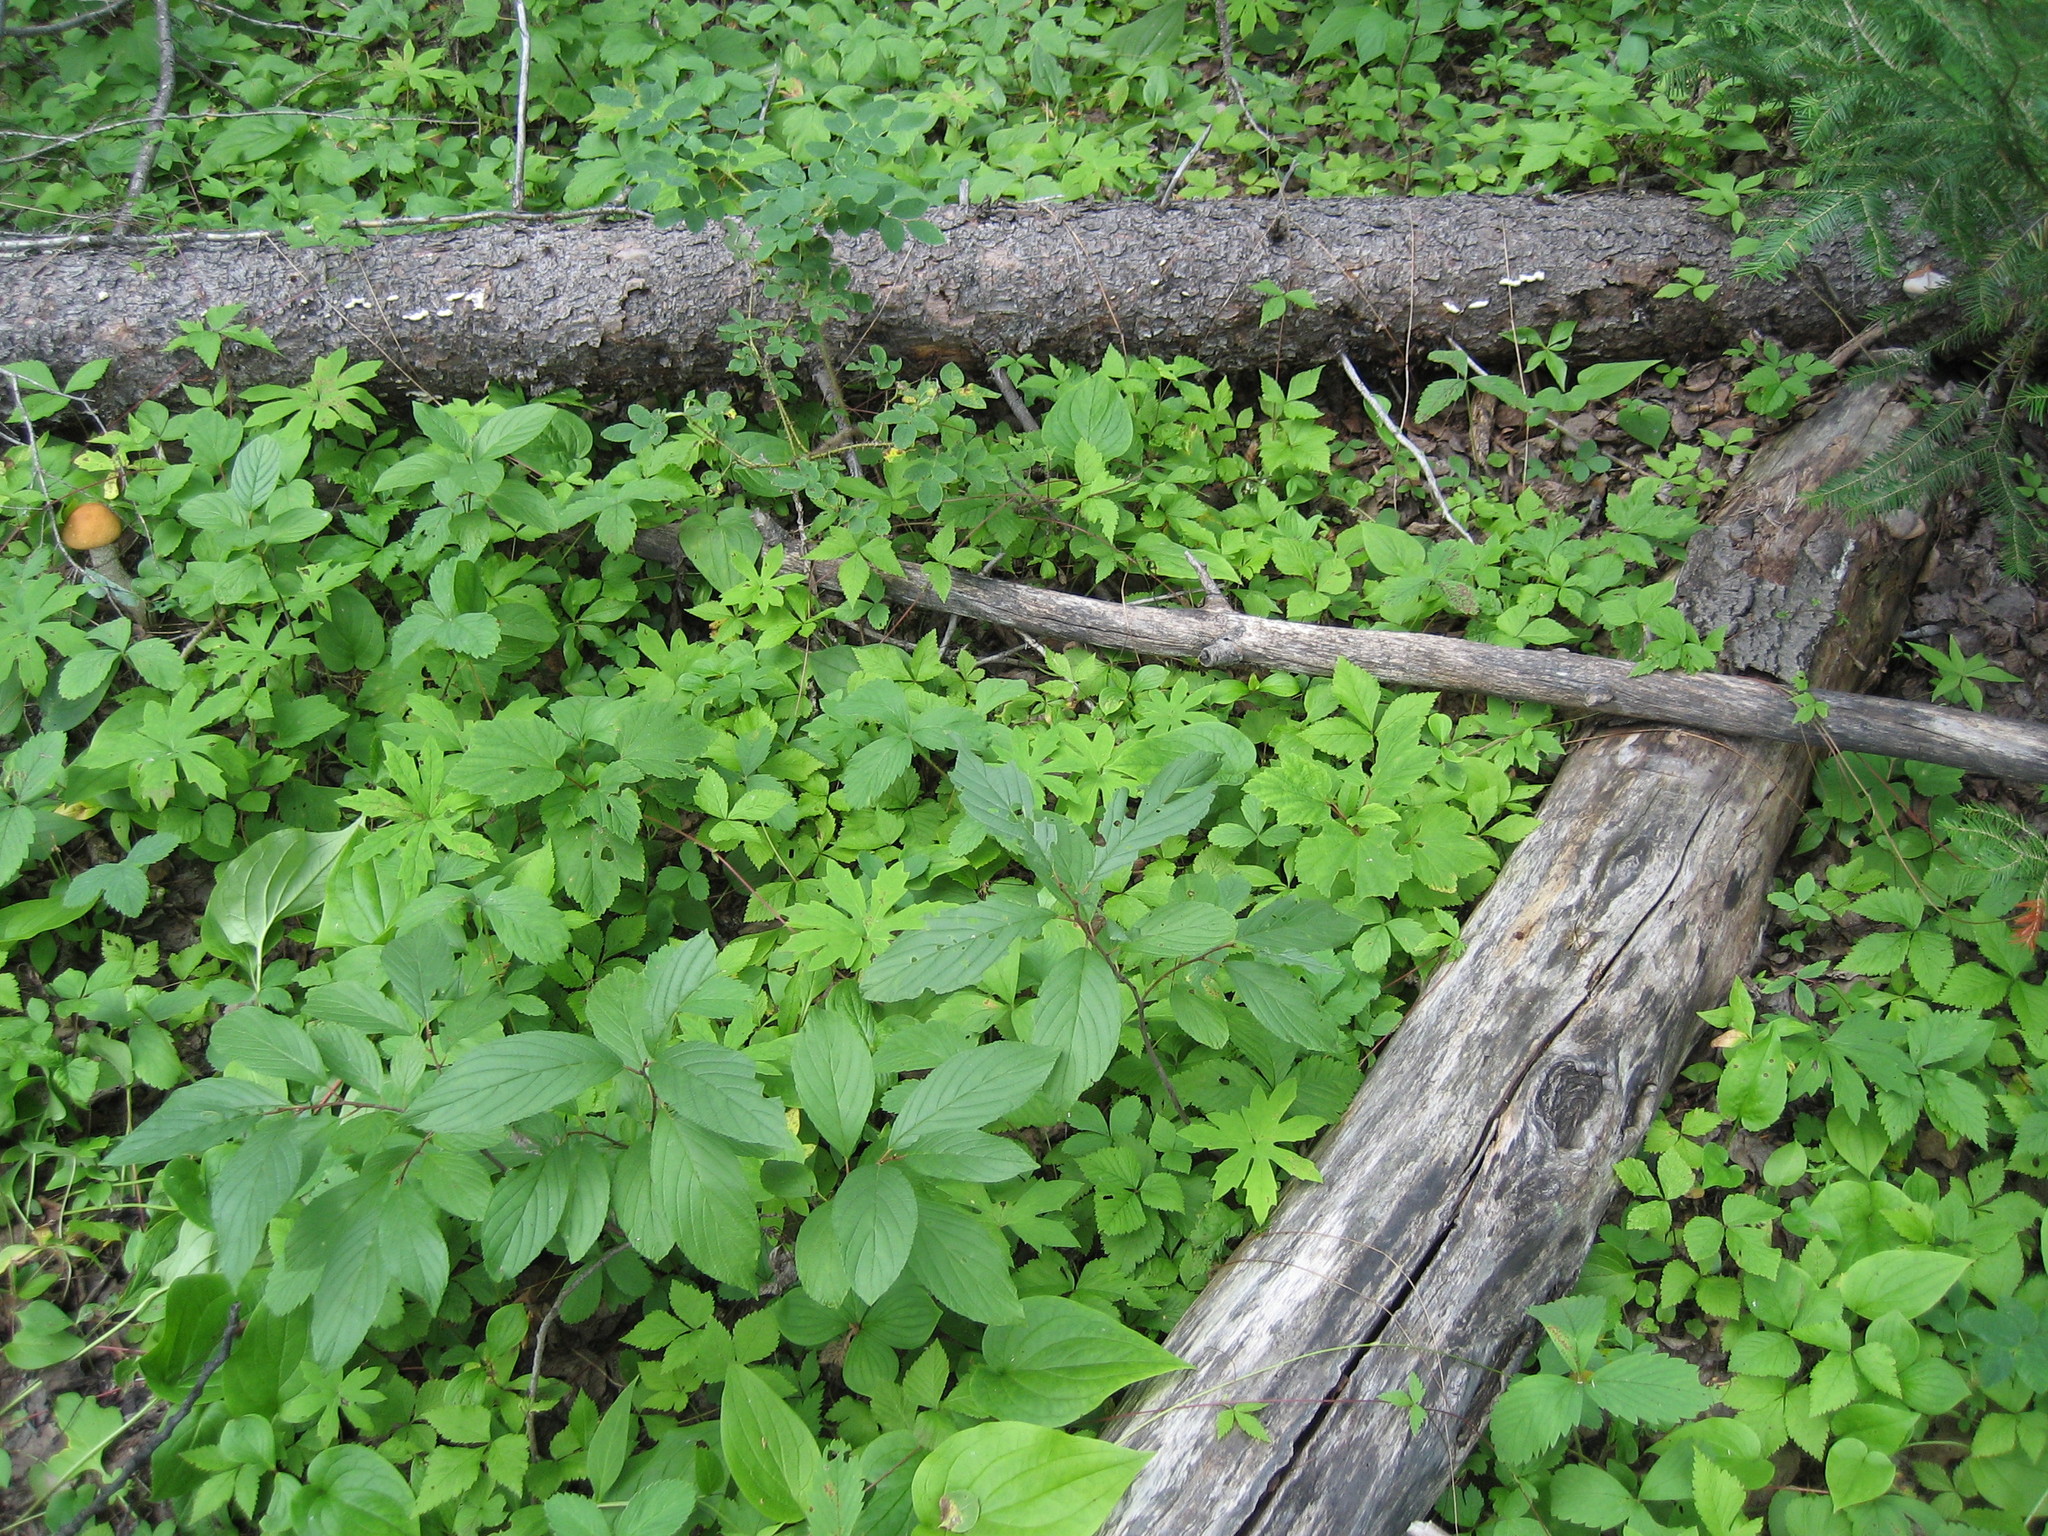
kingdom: Plantae
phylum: Tracheophyta
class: Magnoliopsida
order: Rosales
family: Rhamnaceae
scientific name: Rhamnaceae
